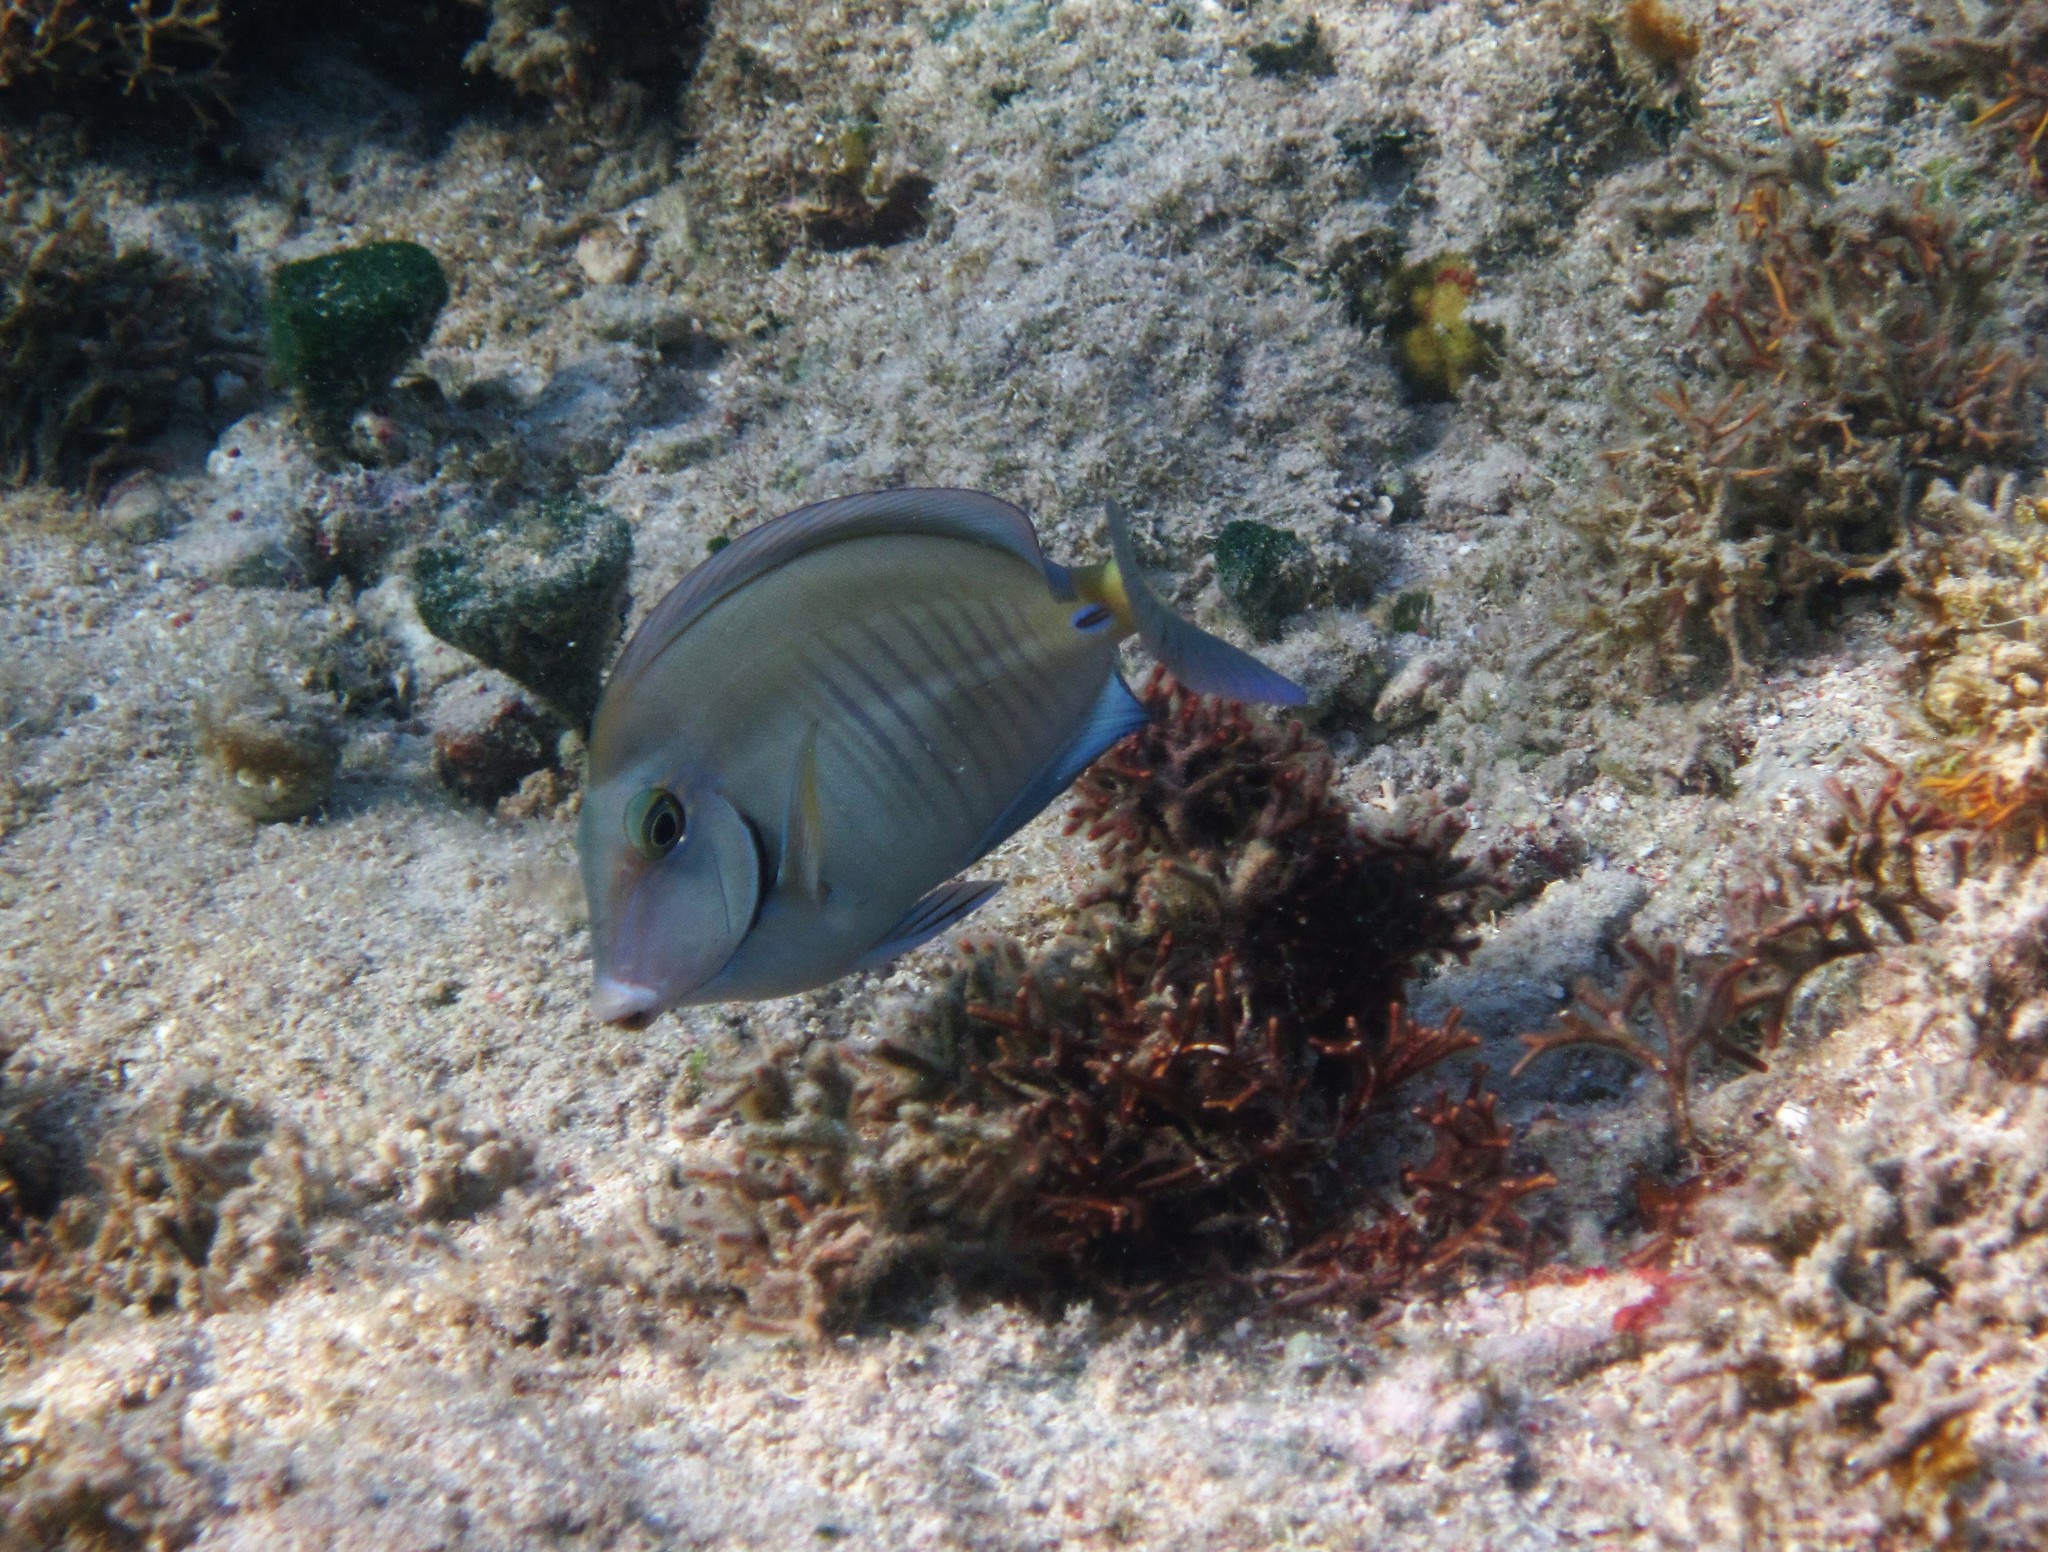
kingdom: Animalia
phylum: Chordata
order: Perciformes
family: Acanthuridae
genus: Acanthurus
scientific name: Acanthurus chirurgus
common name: Doctorfish
